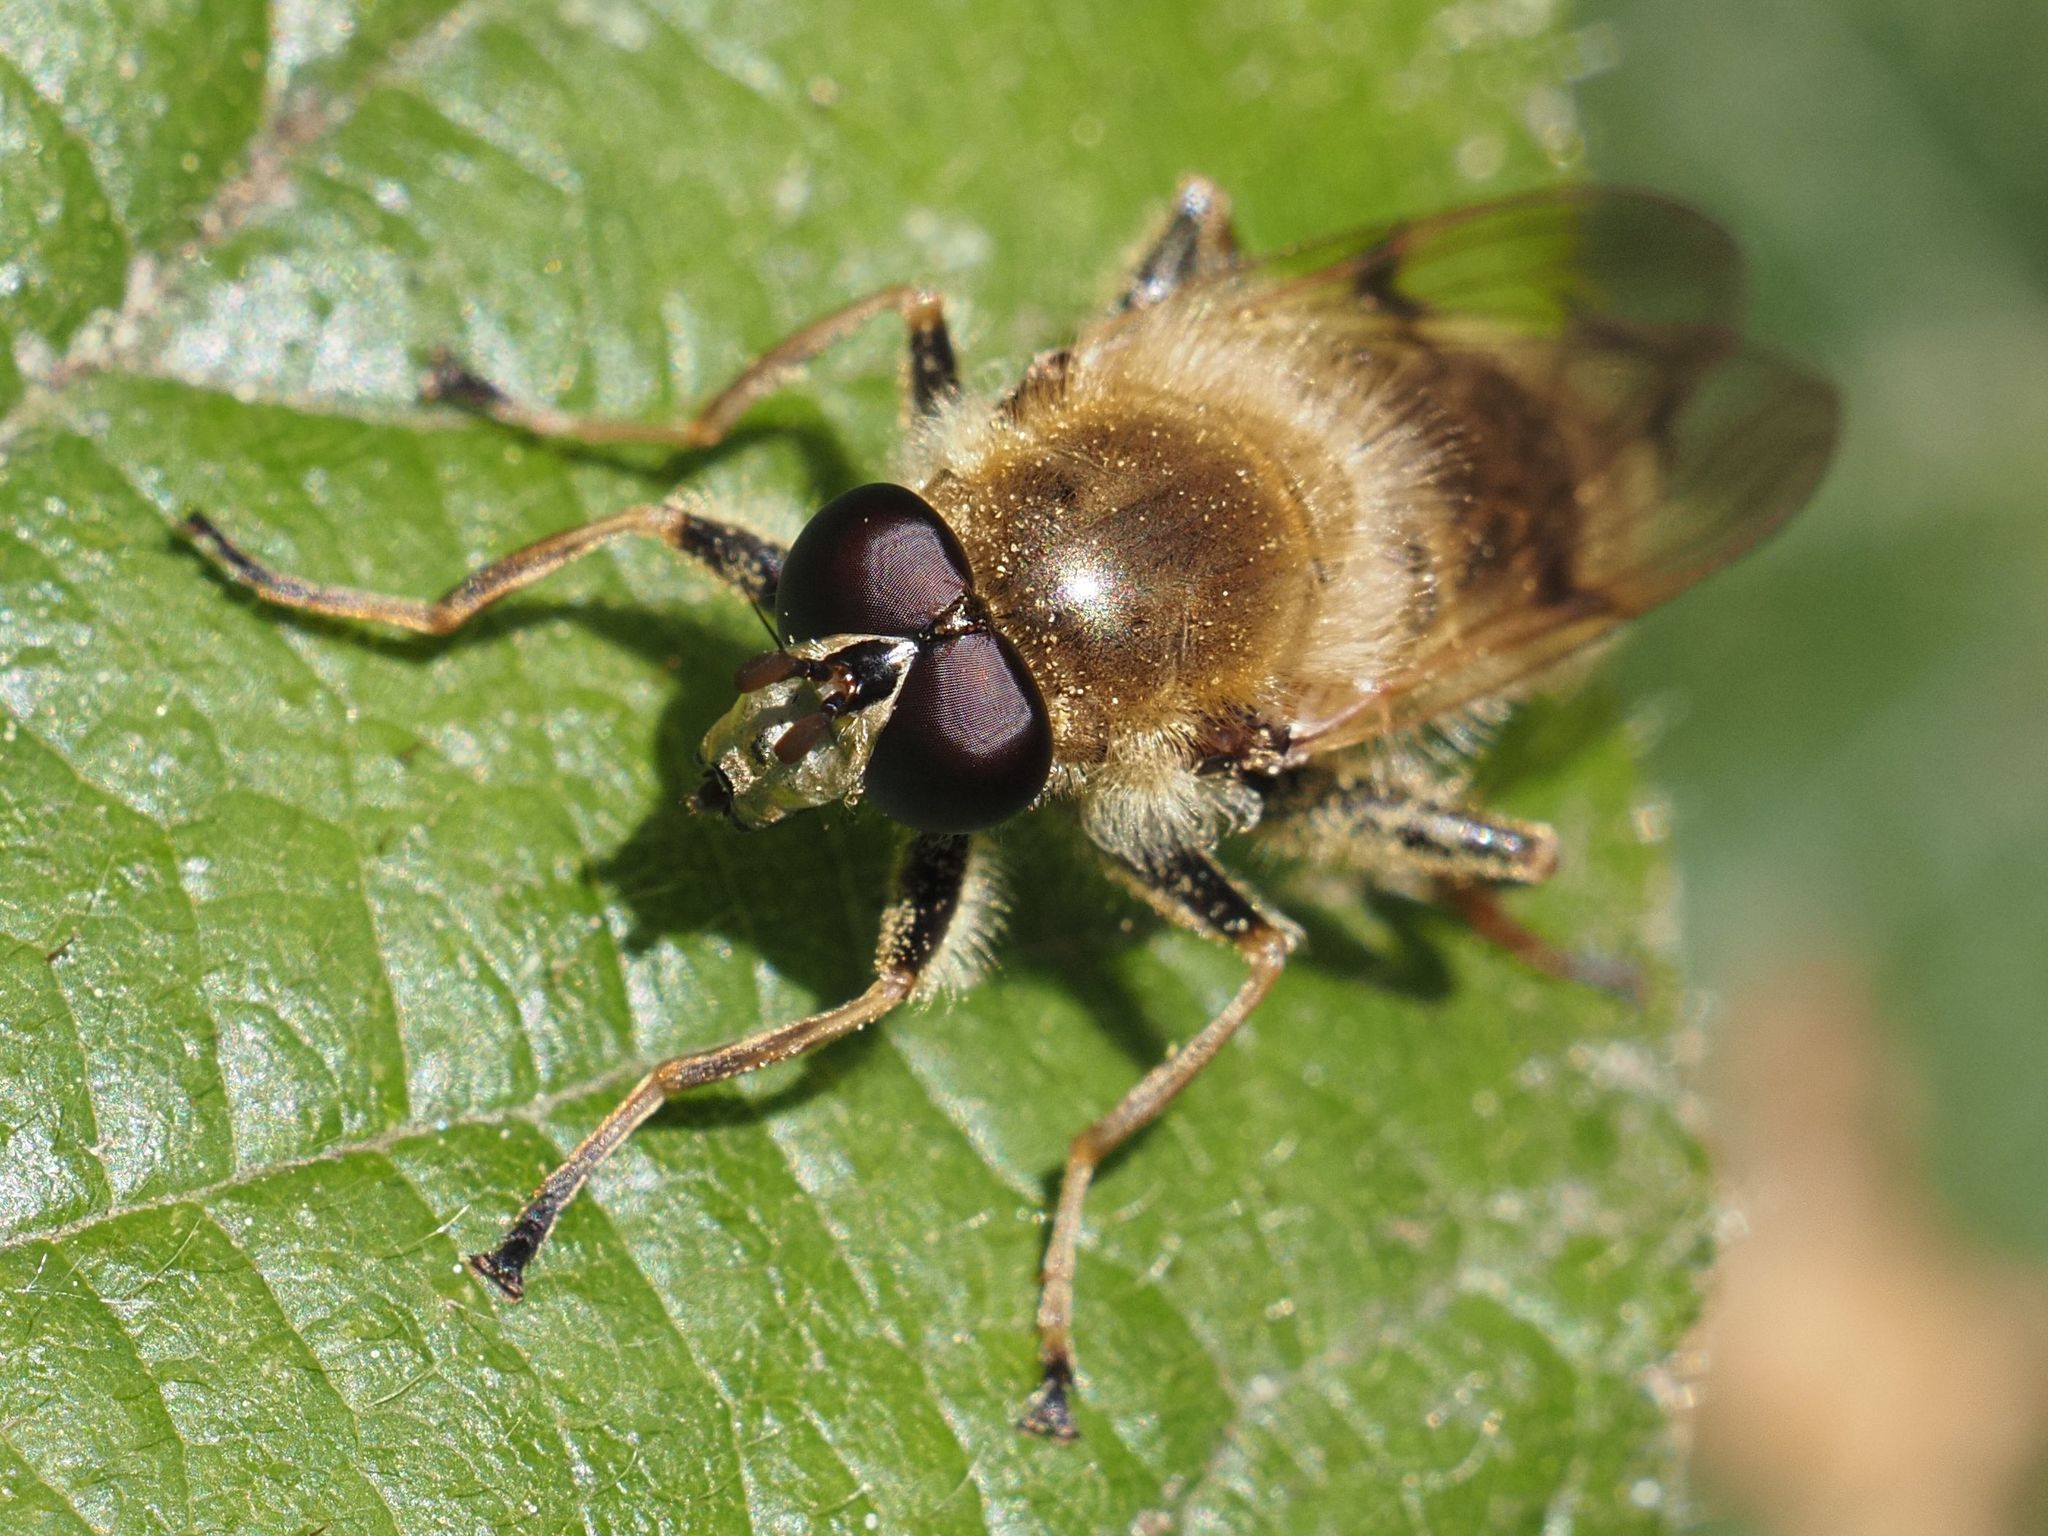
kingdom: Animalia
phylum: Arthropoda
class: Insecta
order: Diptera
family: Syrphidae
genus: Criorhina
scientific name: Criorhina asilica
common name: Pale-banded bear hoverfly
